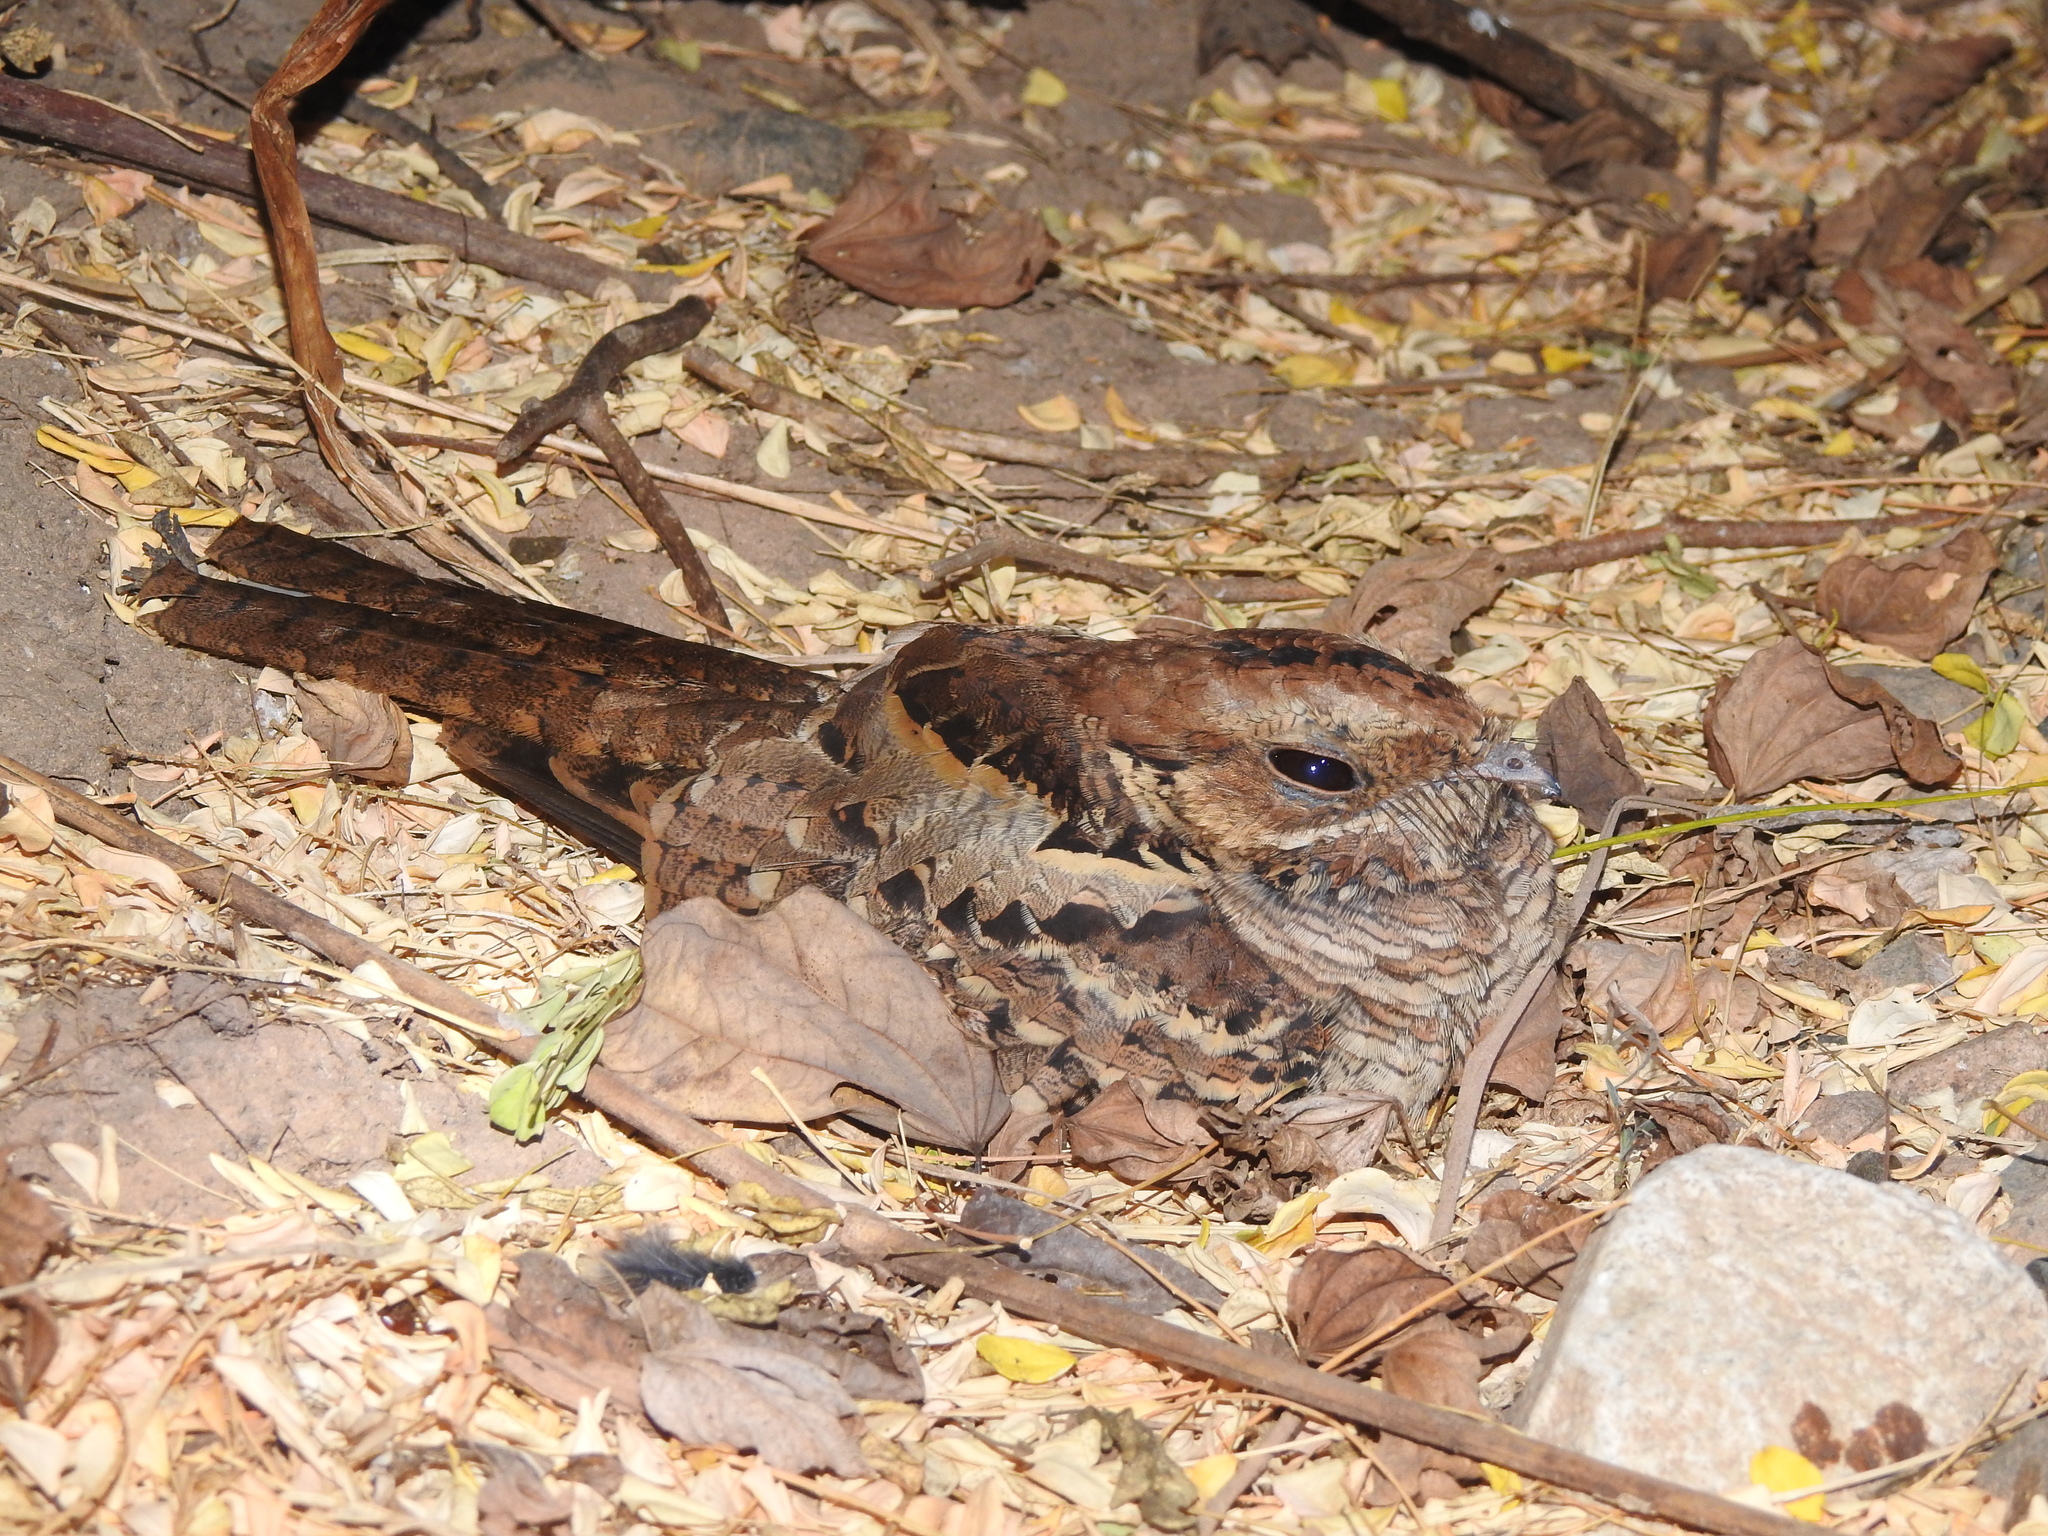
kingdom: Animalia
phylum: Chordata
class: Aves
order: Caprimulgiformes
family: Caprimulgidae
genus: Nyctidromus
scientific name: Nyctidromus albicollis
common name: Pauraque
